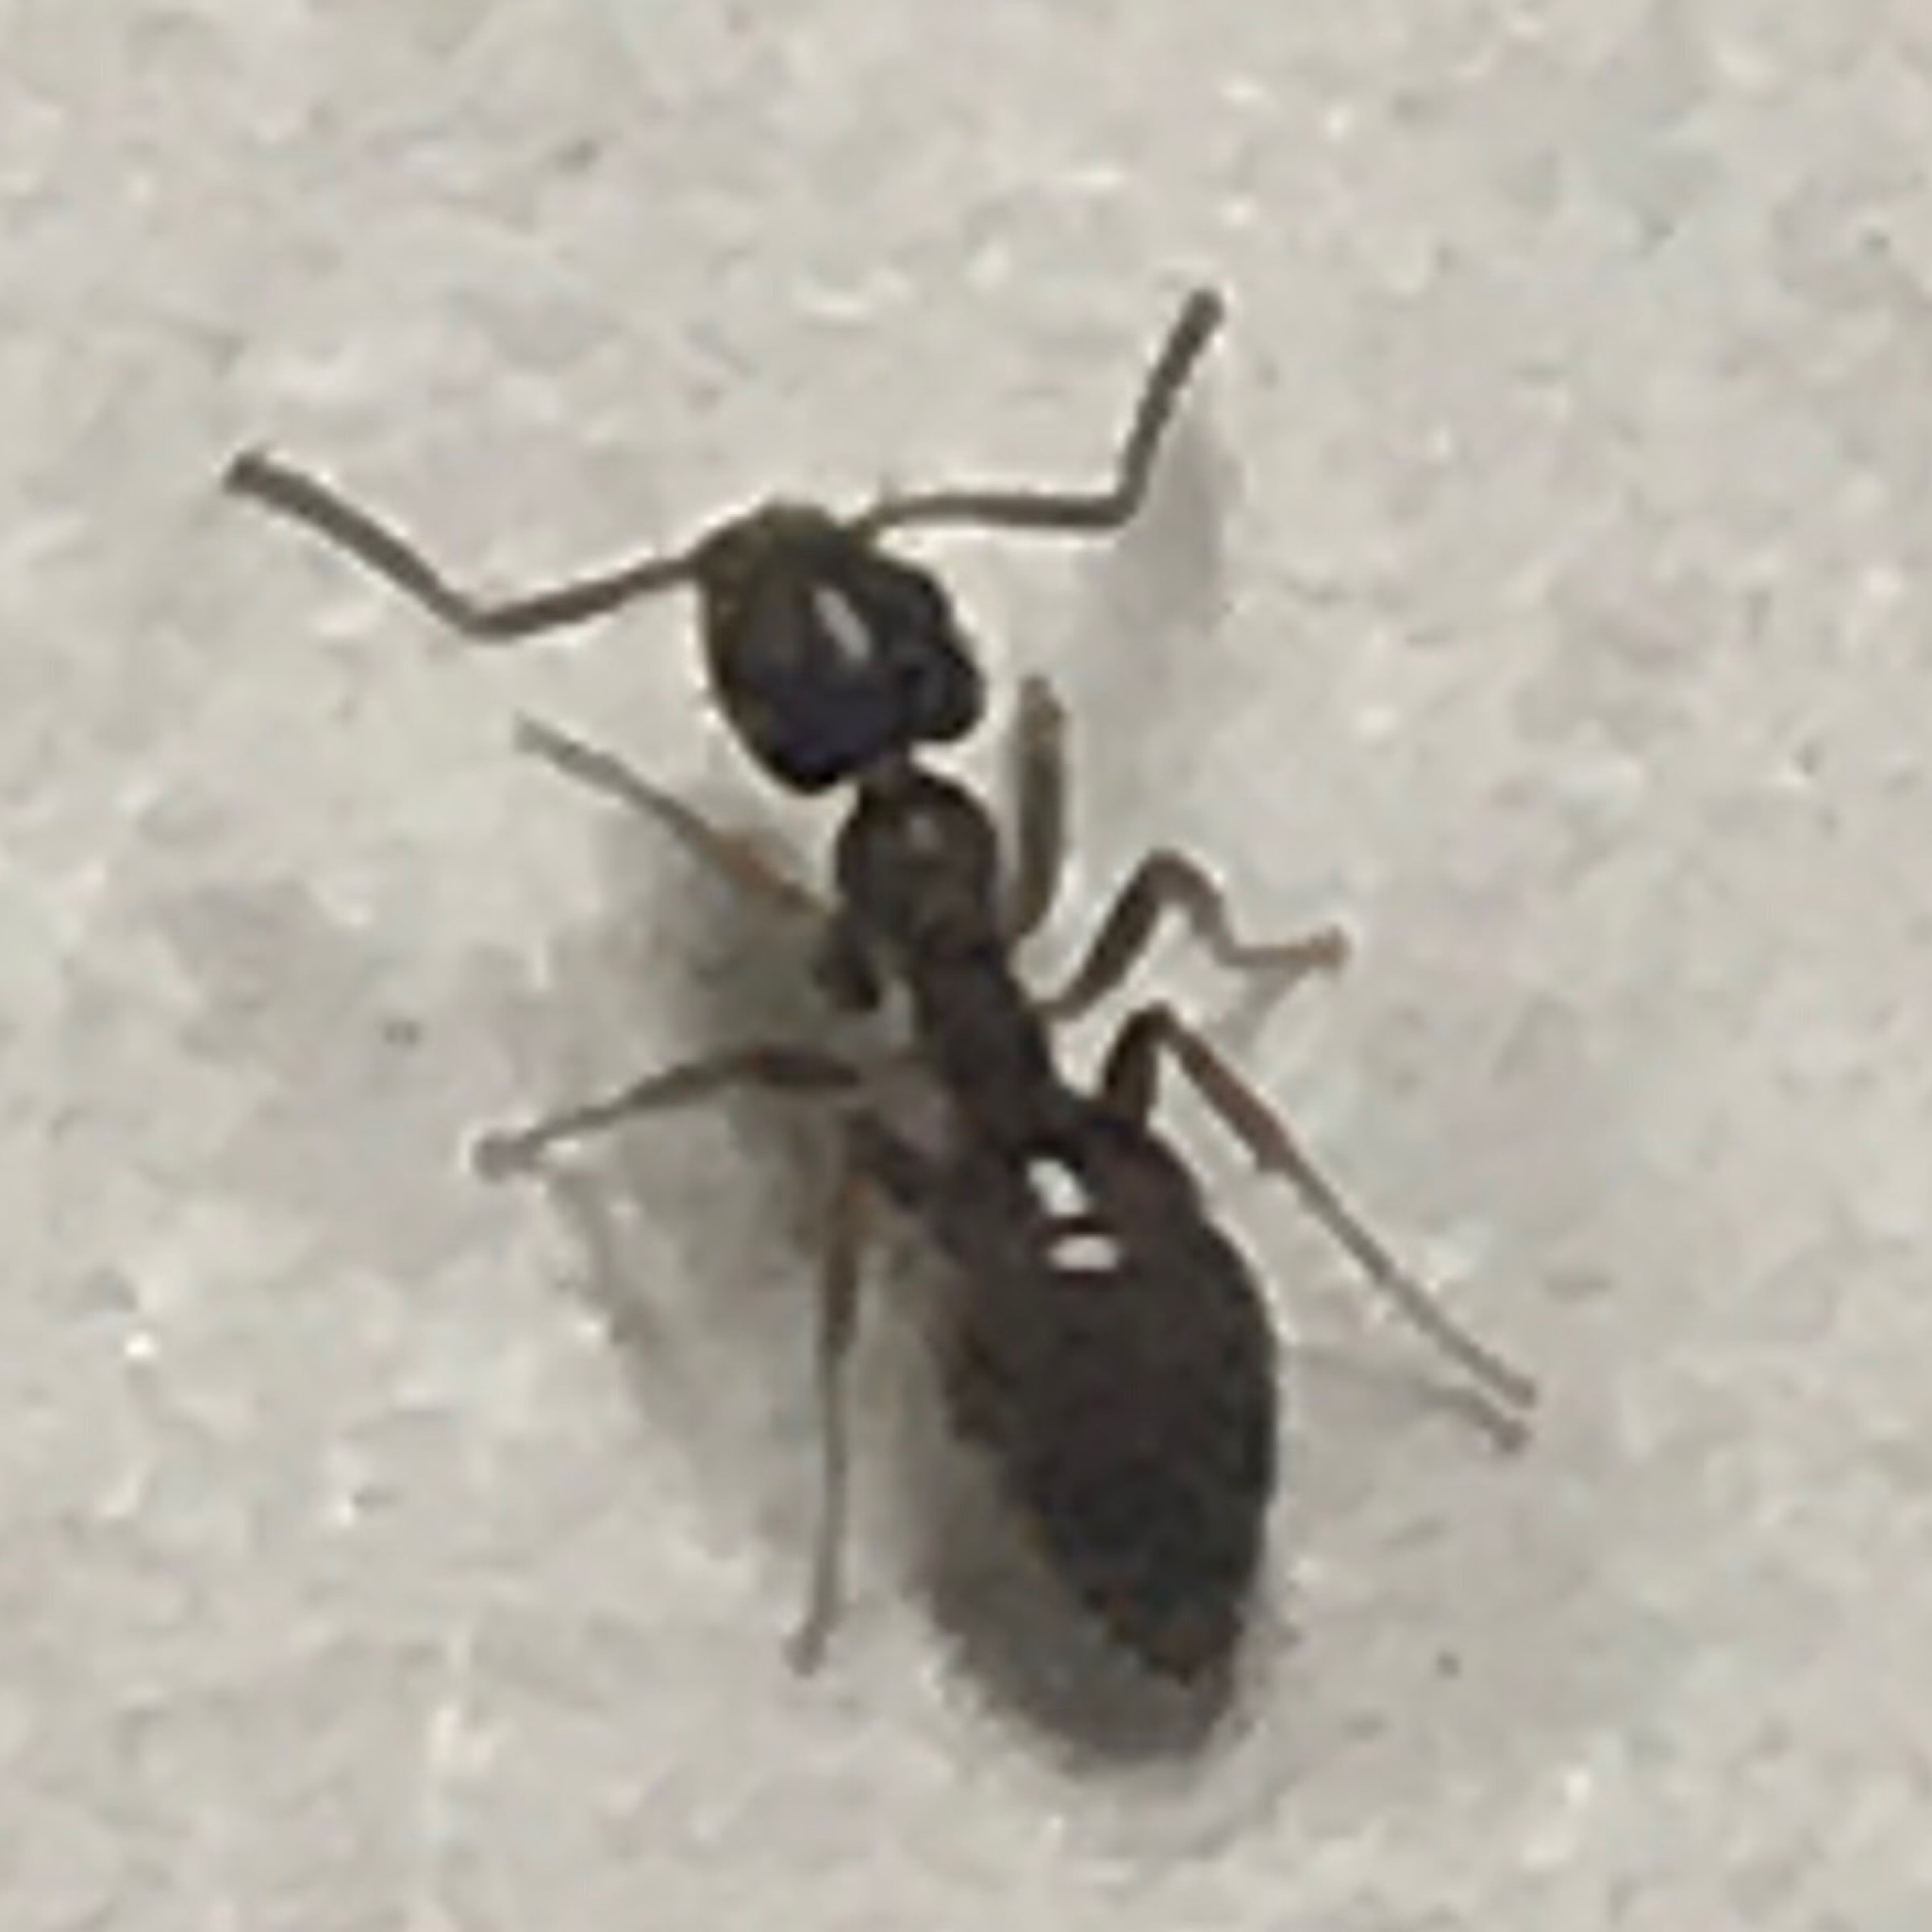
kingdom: Animalia
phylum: Arthropoda
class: Insecta
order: Hymenoptera
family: Formicidae
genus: Tapinoma
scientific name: Tapinoma sessile
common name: Odorous house ant
